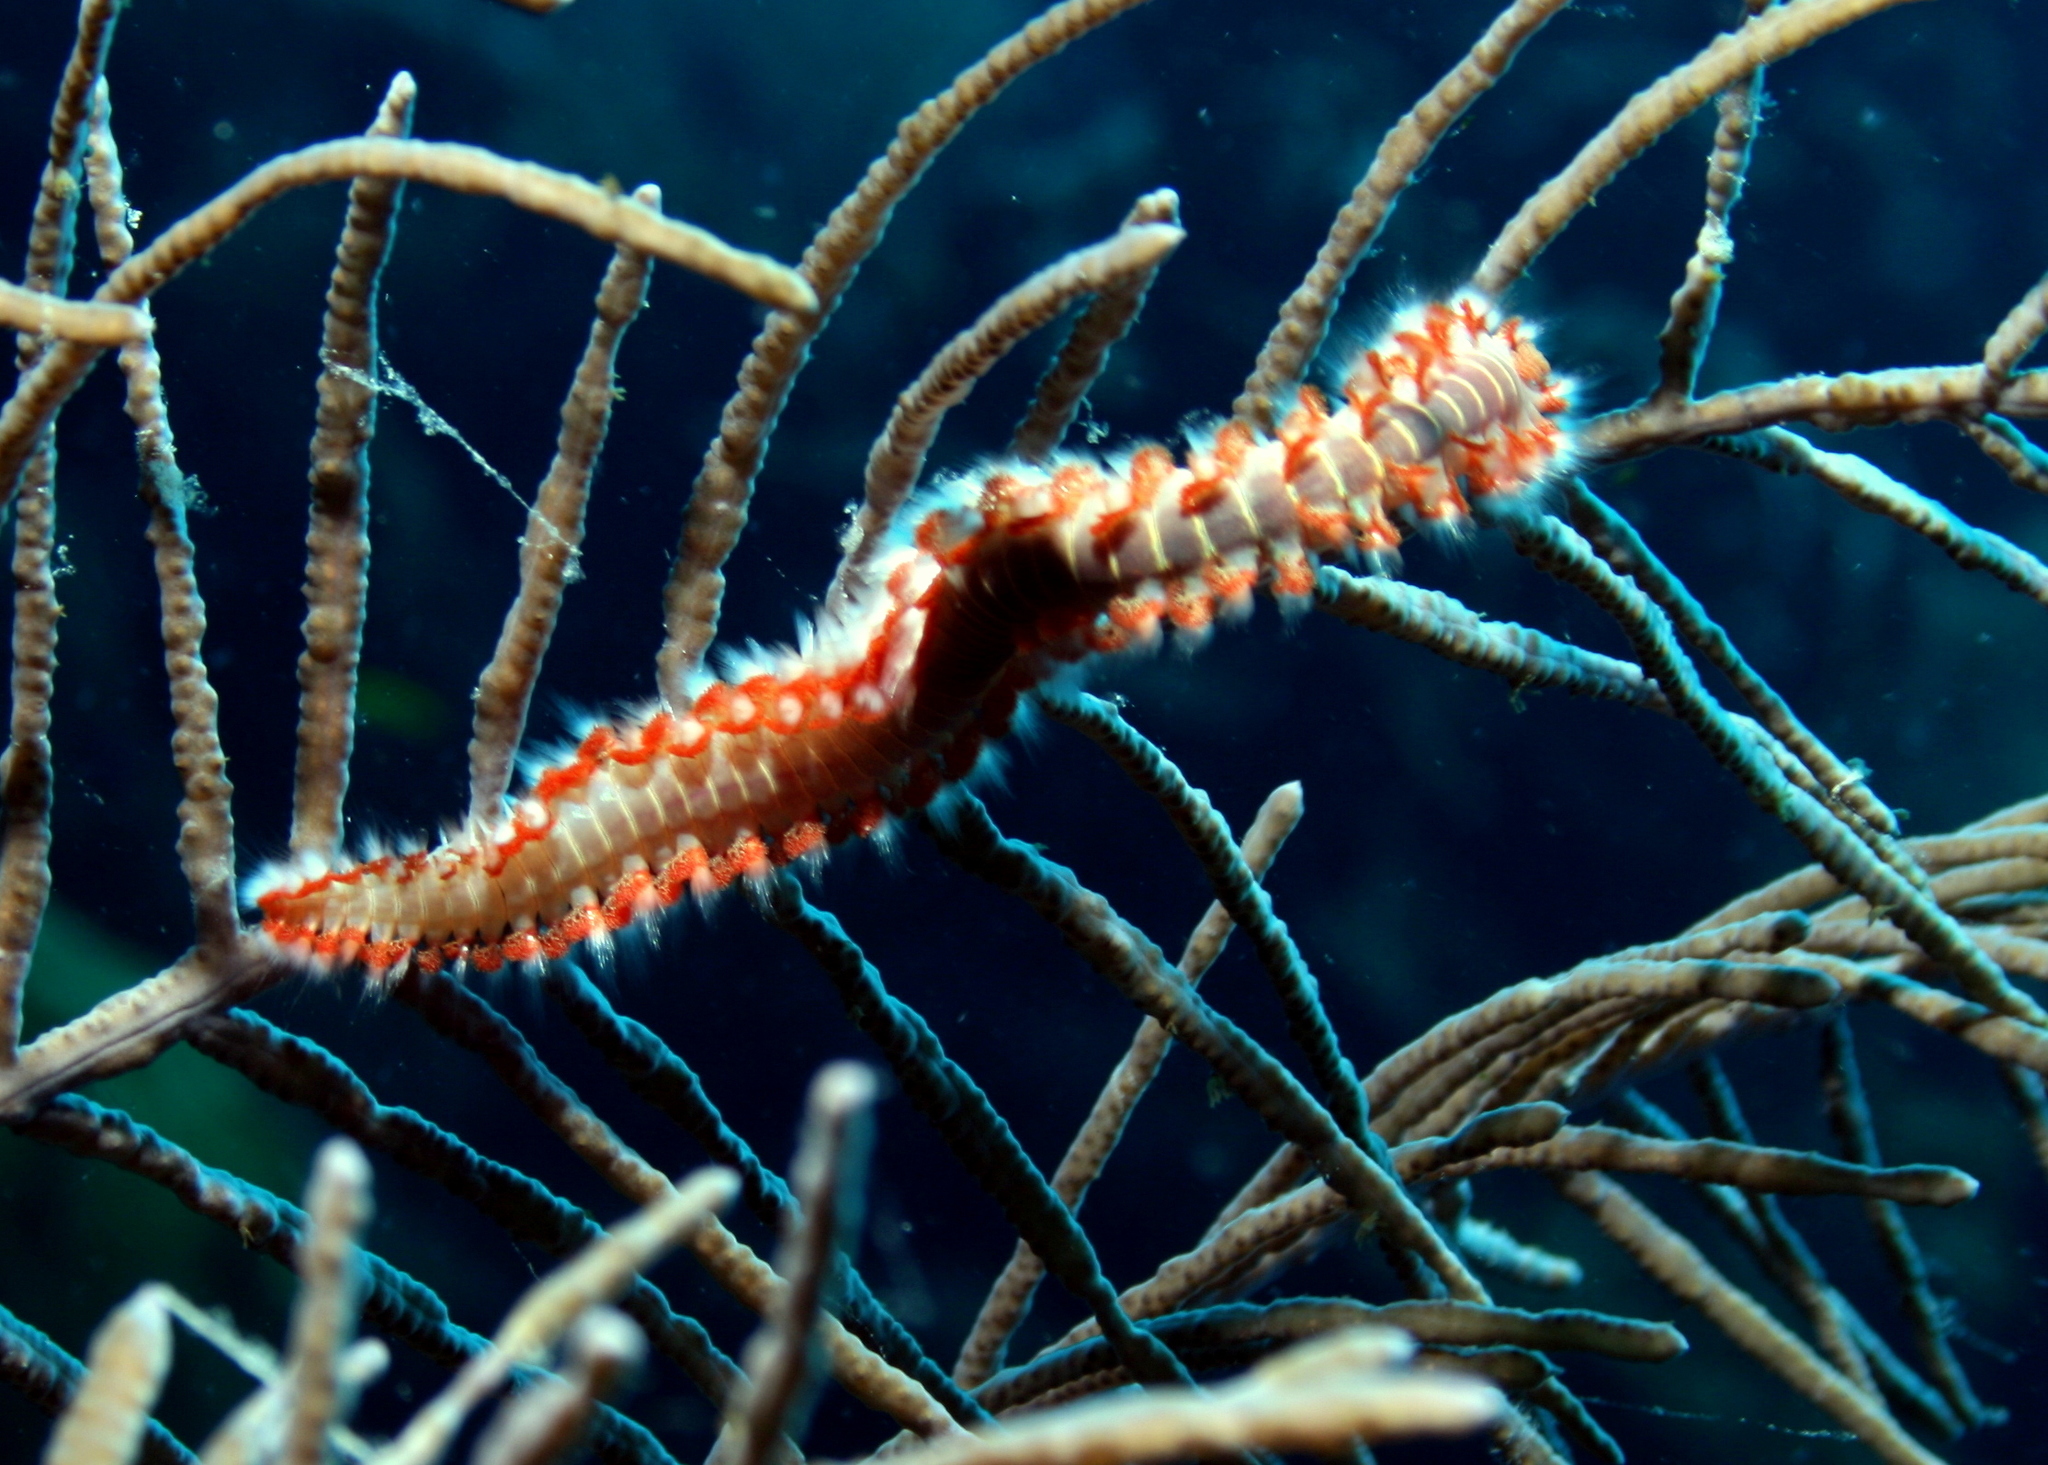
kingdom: Animalia
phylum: Annelida
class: Polychaeta
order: Amphinomida
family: Amphinomidae
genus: Hermodice
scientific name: Hermodice carunculata
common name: Bearded fireworm
